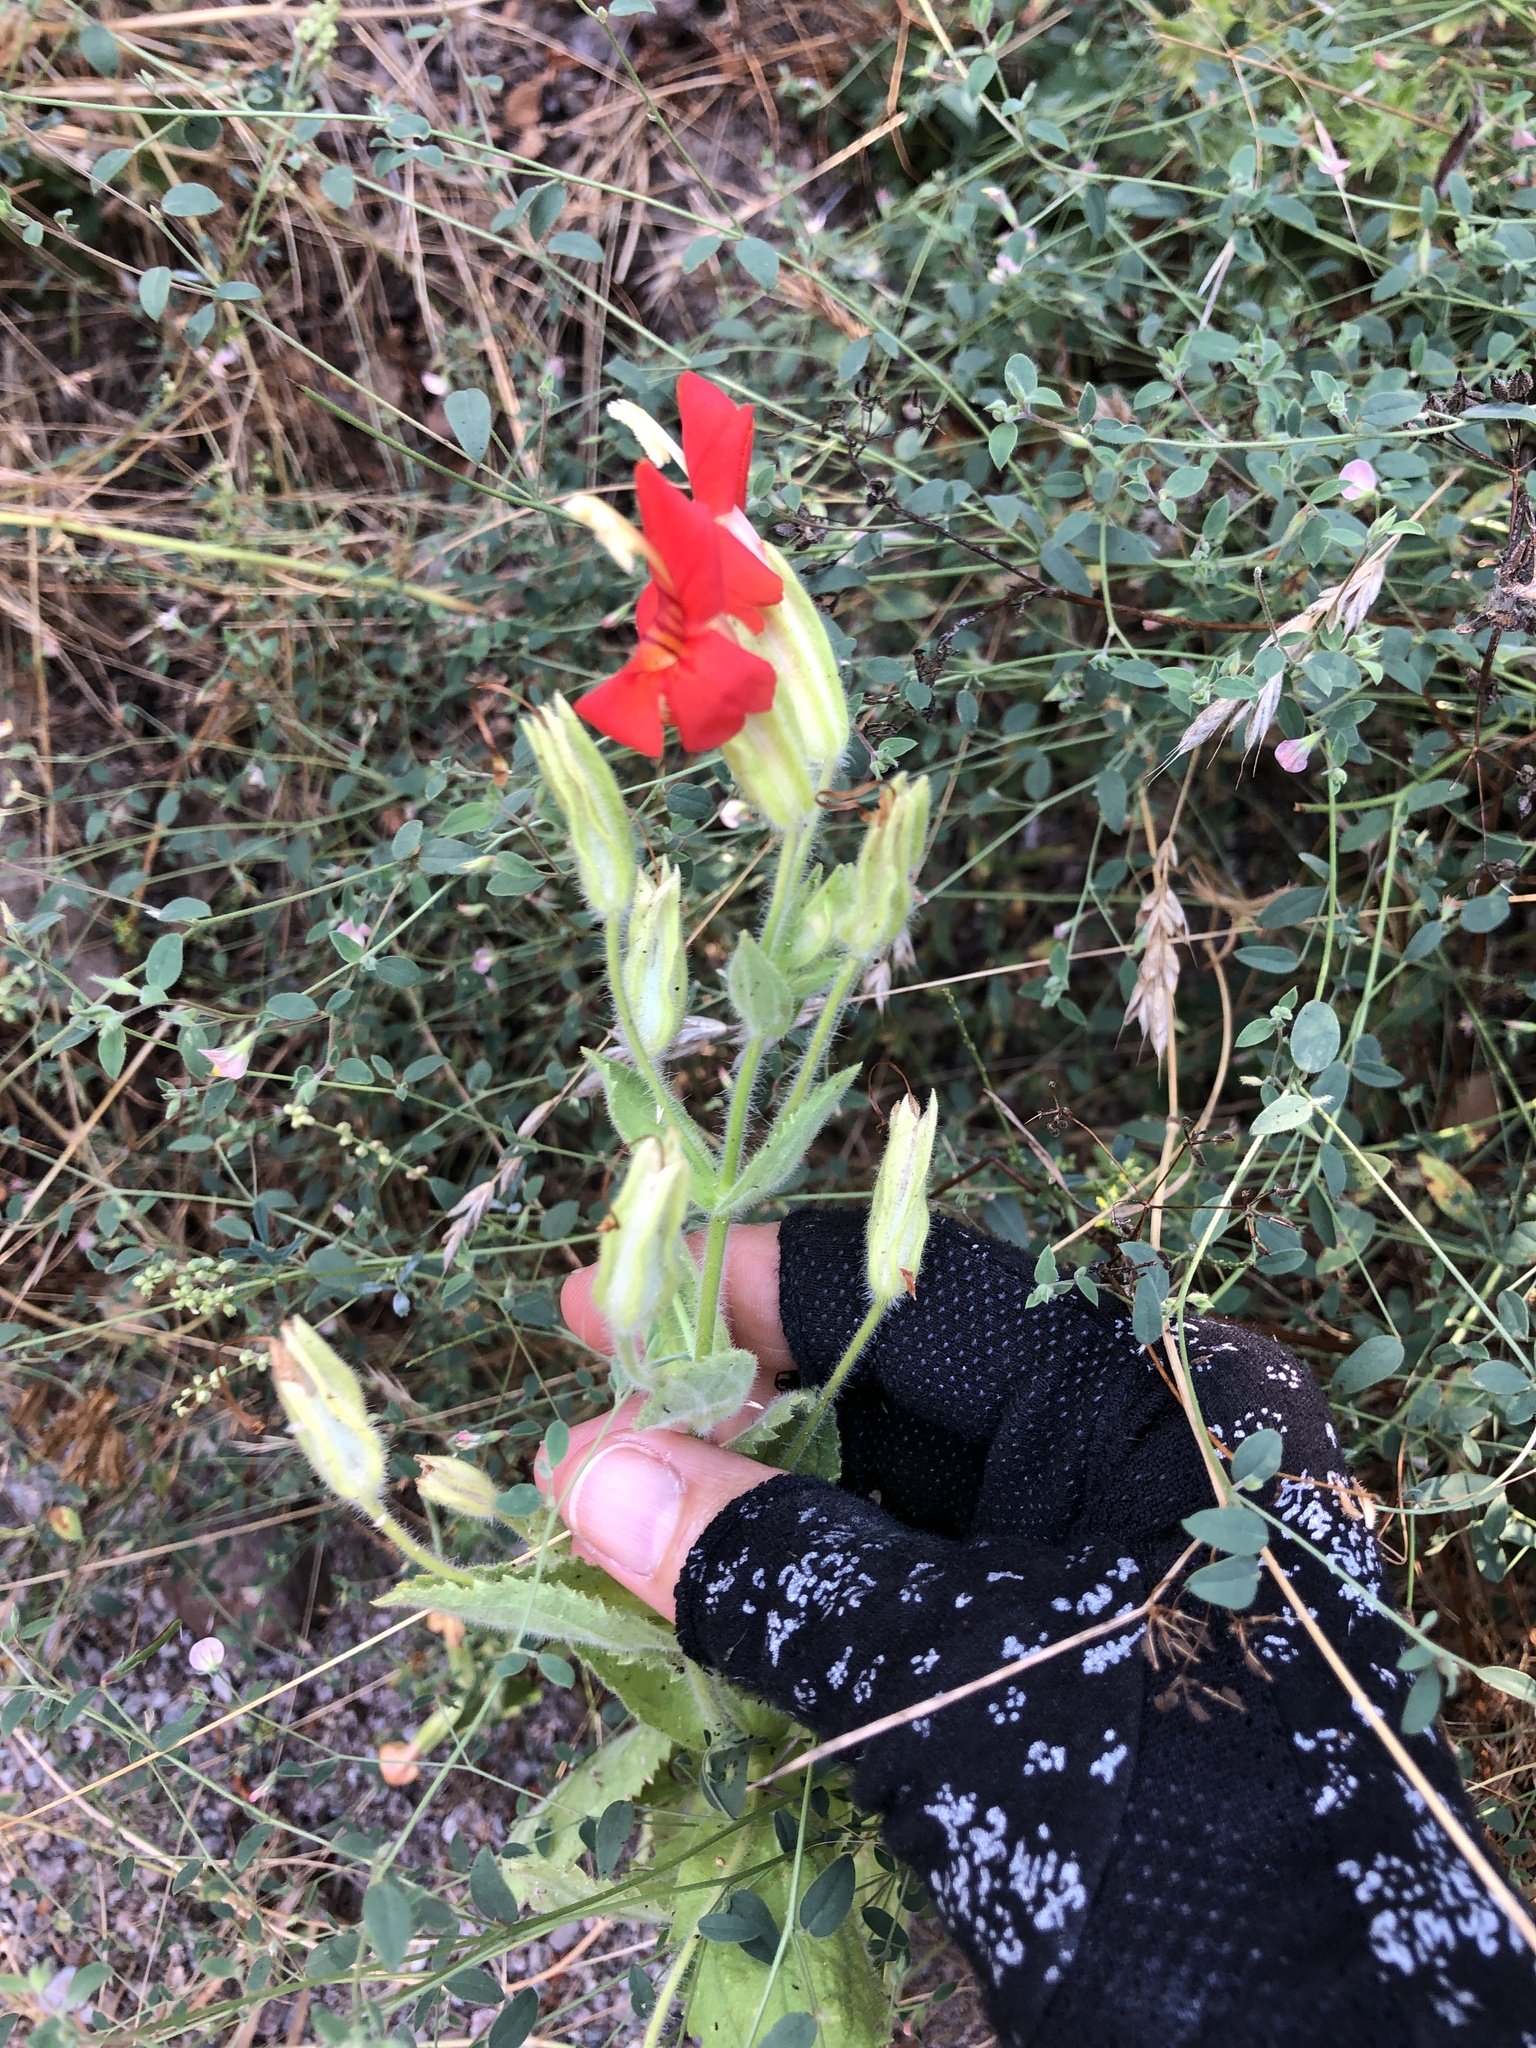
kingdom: Plantae
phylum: Tracheophyta
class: Magnoliopsida
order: Lamiales
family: Phrymaceae
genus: Erythranthe
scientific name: Erythranthe cardinalis
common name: Scarlet monkey-flower
